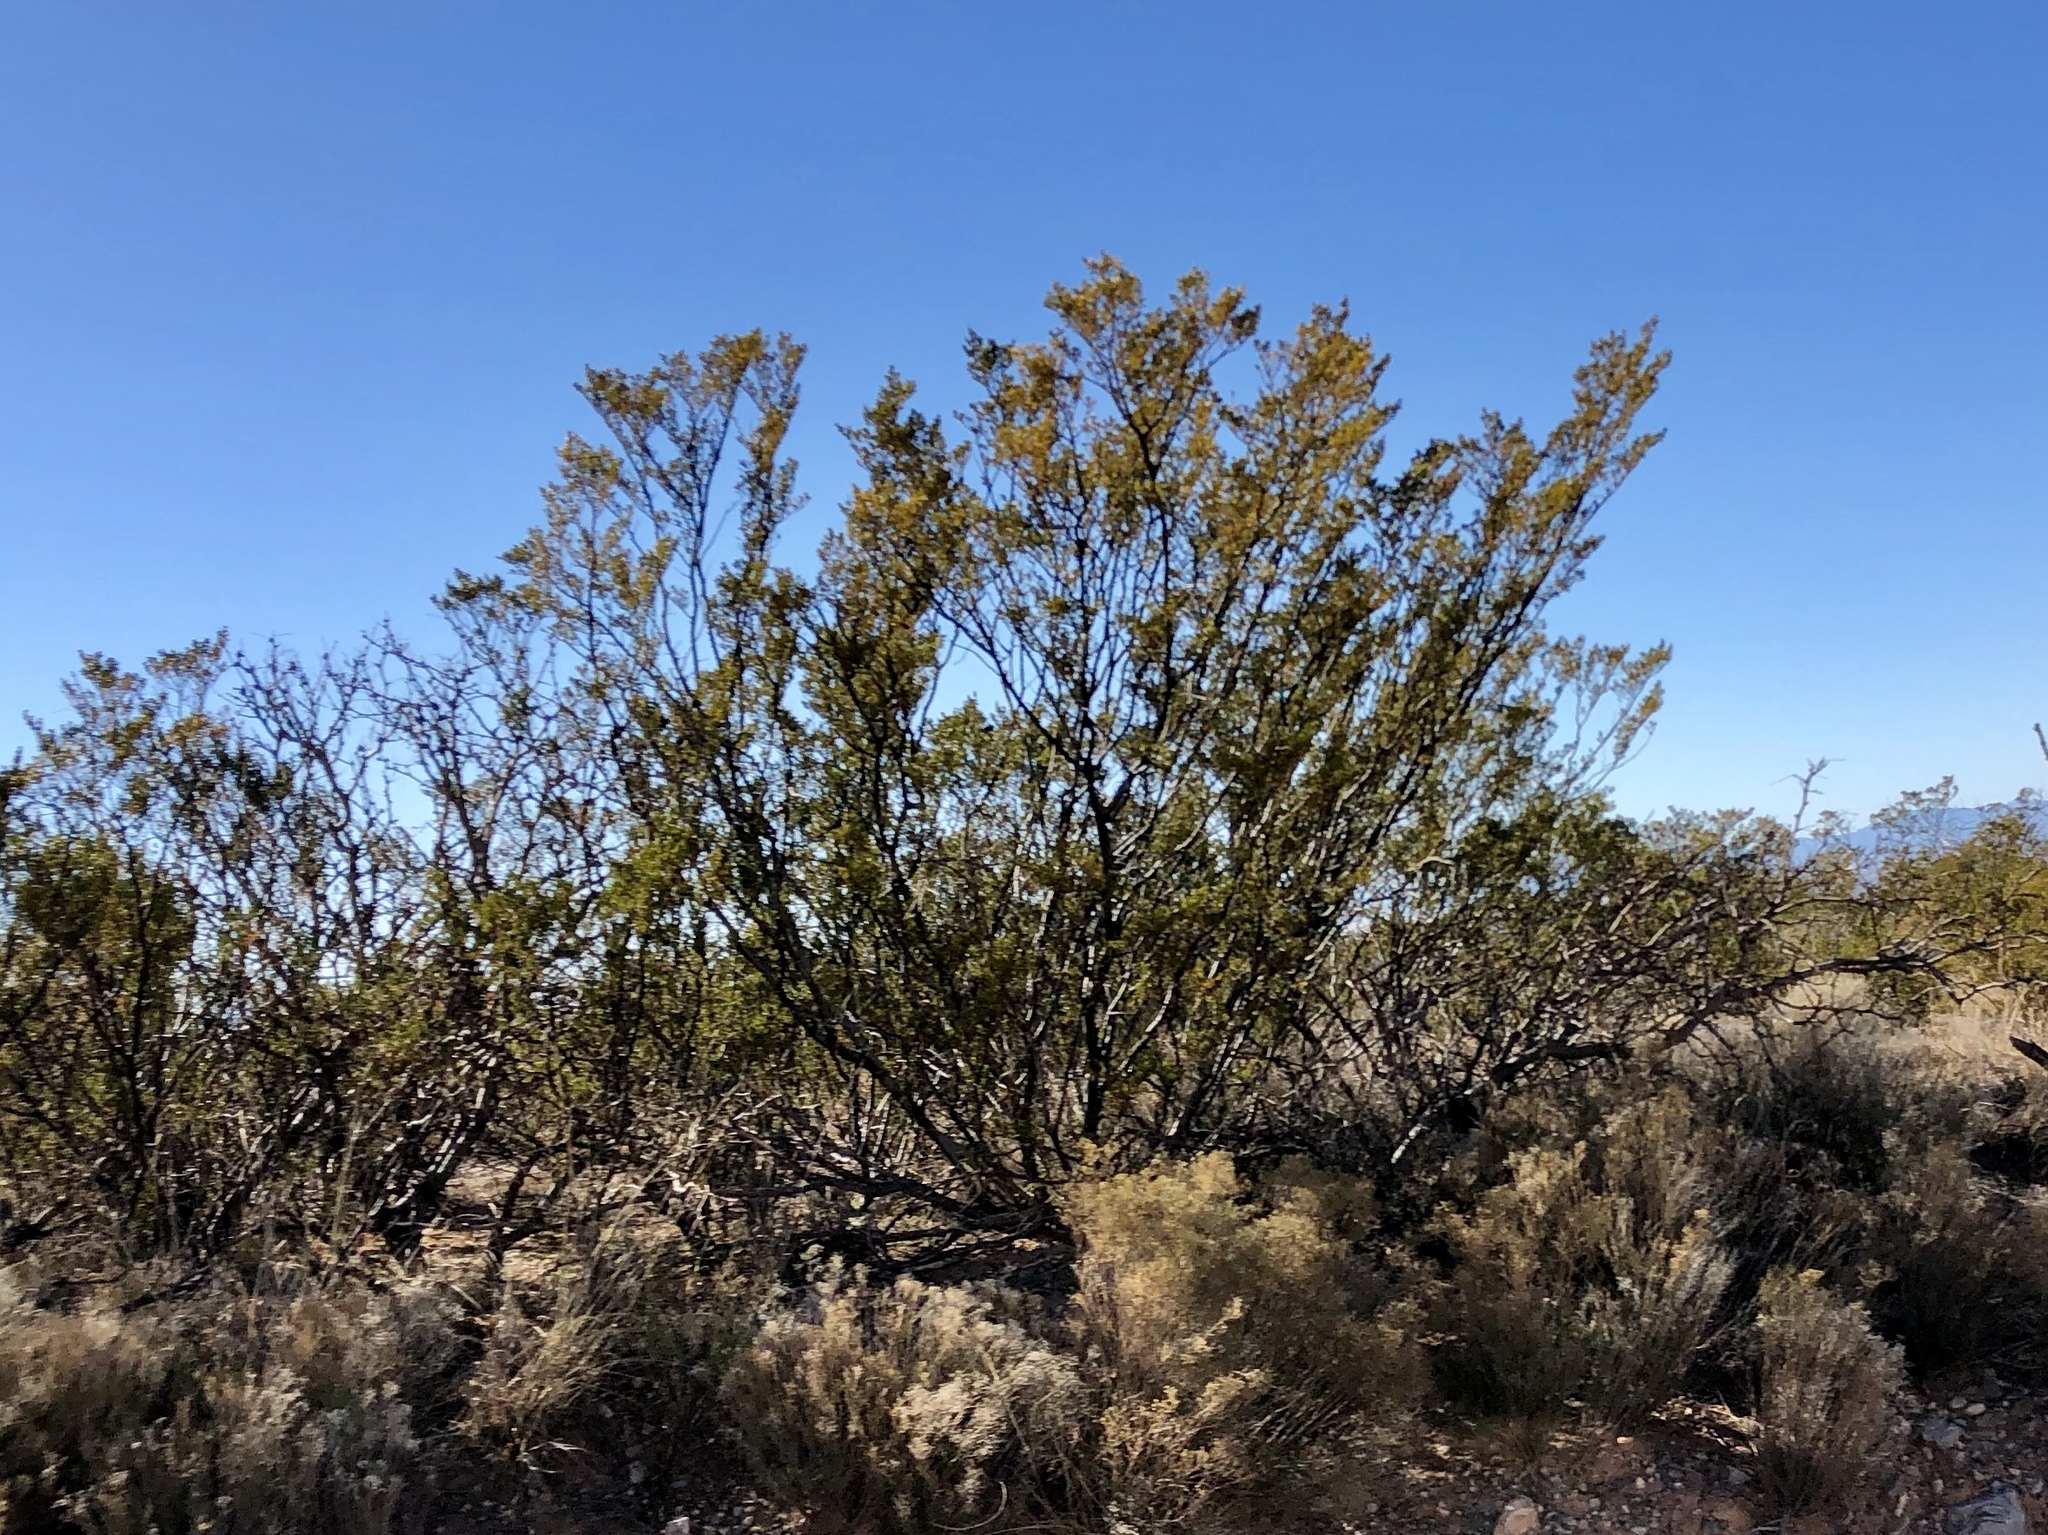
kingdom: Plantae
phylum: Tracheophyta
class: Magnoliopsida
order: Zygophyllales
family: Zygophyllaceae
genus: Larrea
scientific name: Larrea tridentata
